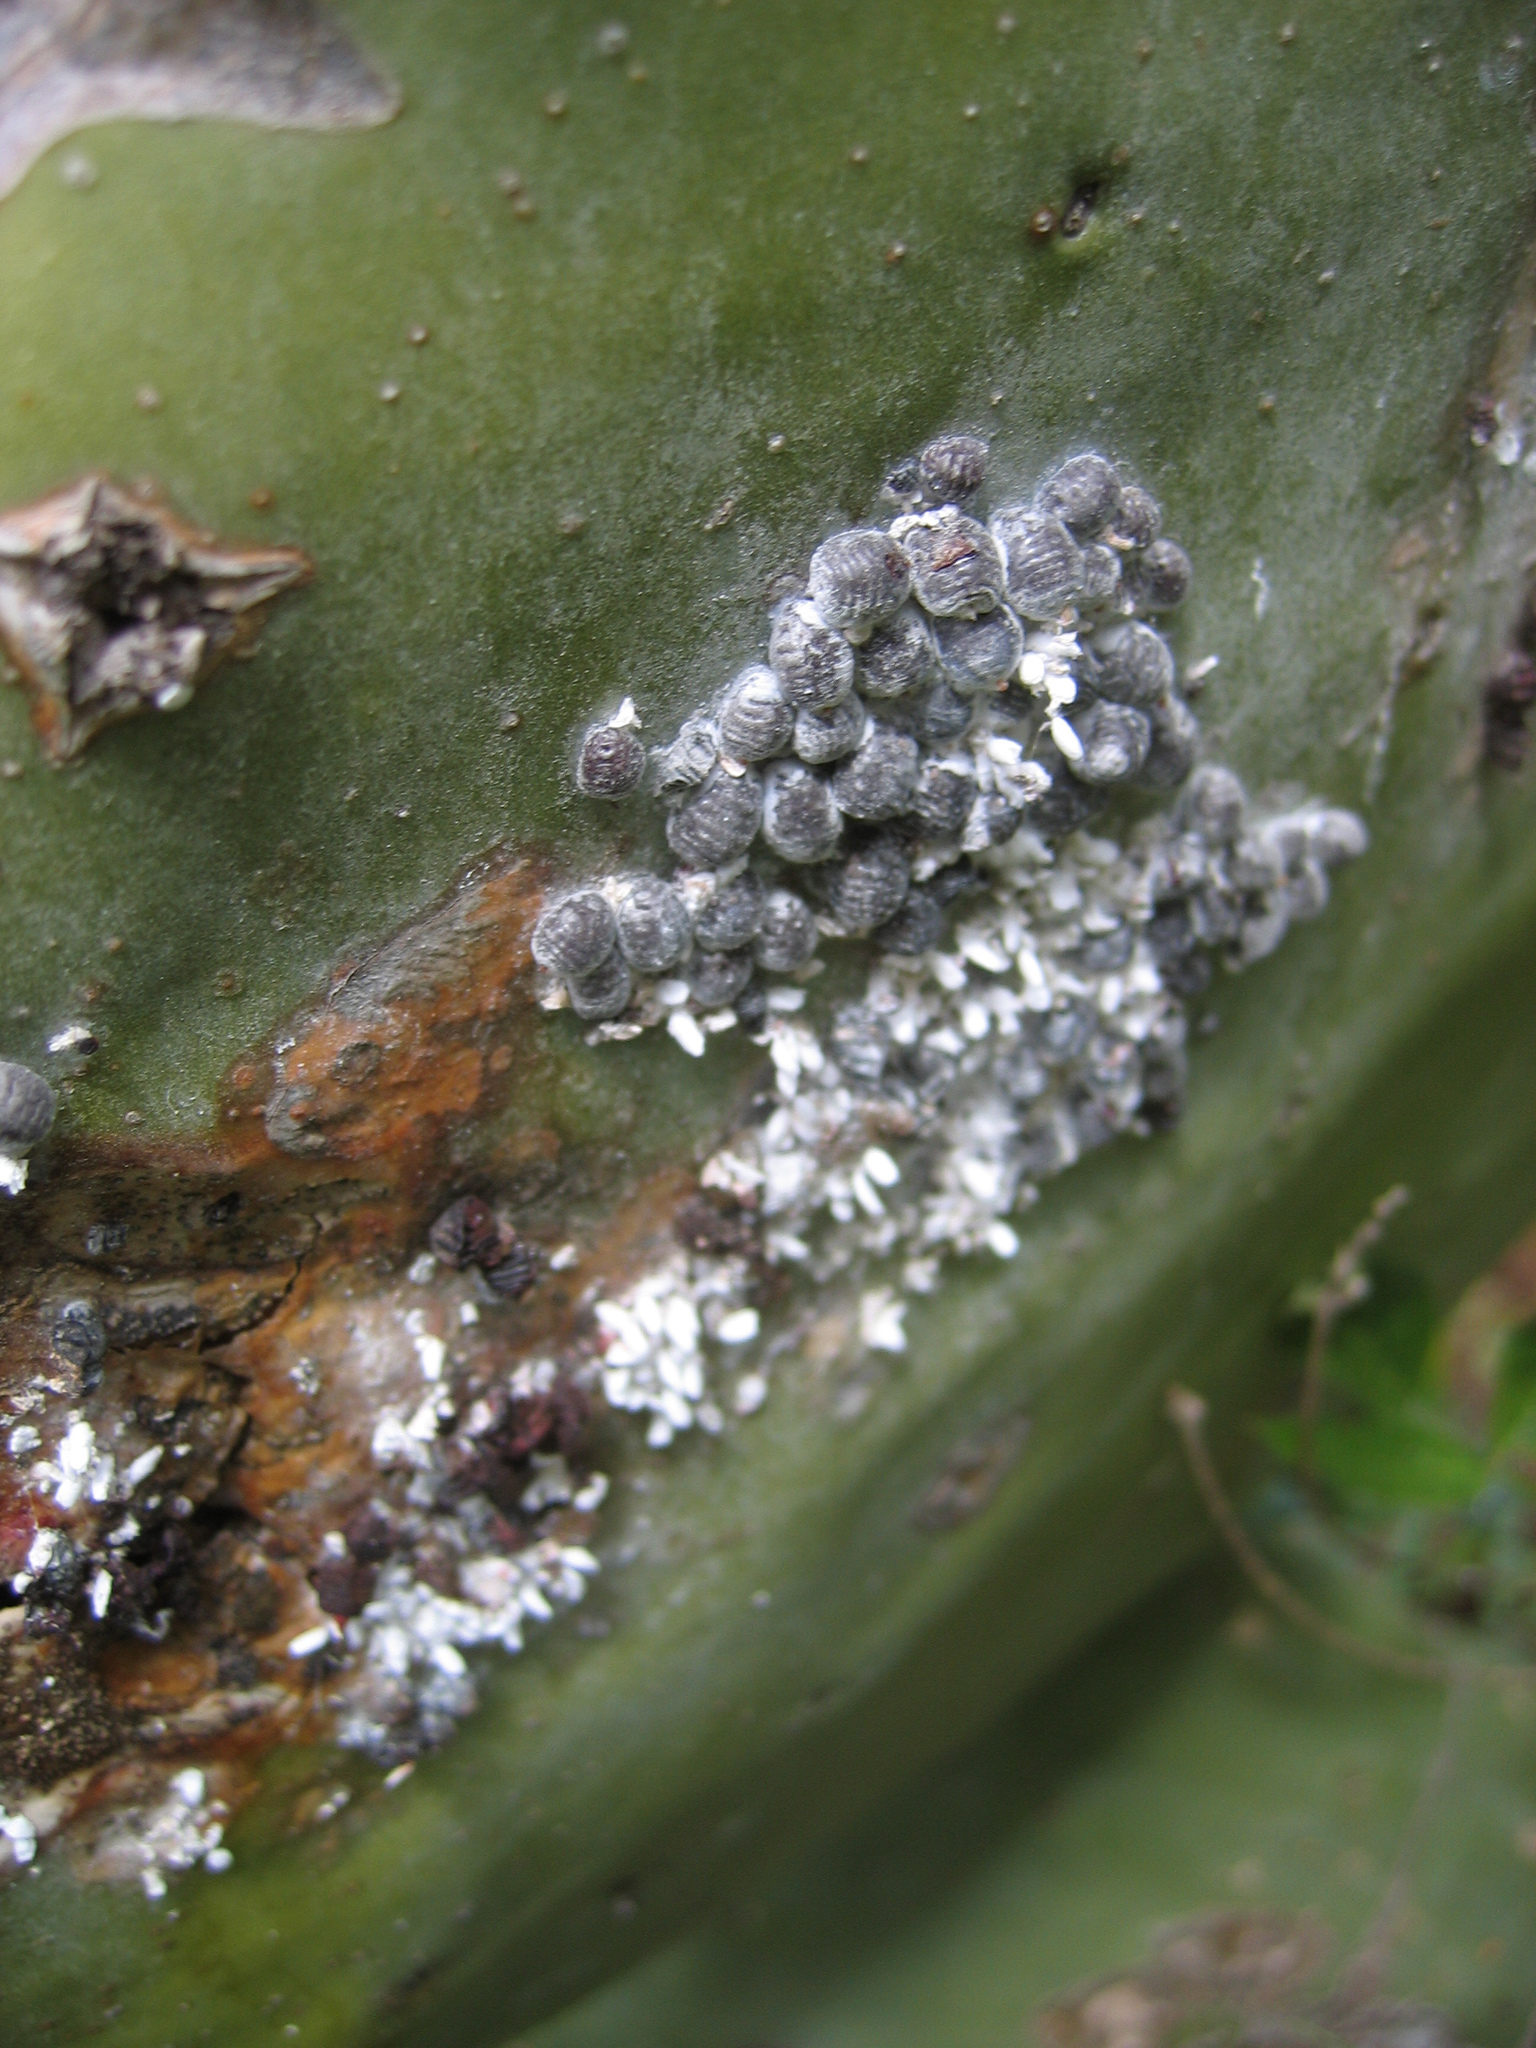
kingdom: Animalia
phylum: Arthropoda
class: Insecta
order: Hemiptera
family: Dactylopiidae
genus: Dactylopius
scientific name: Dactylopius coccus
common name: Cochineal
